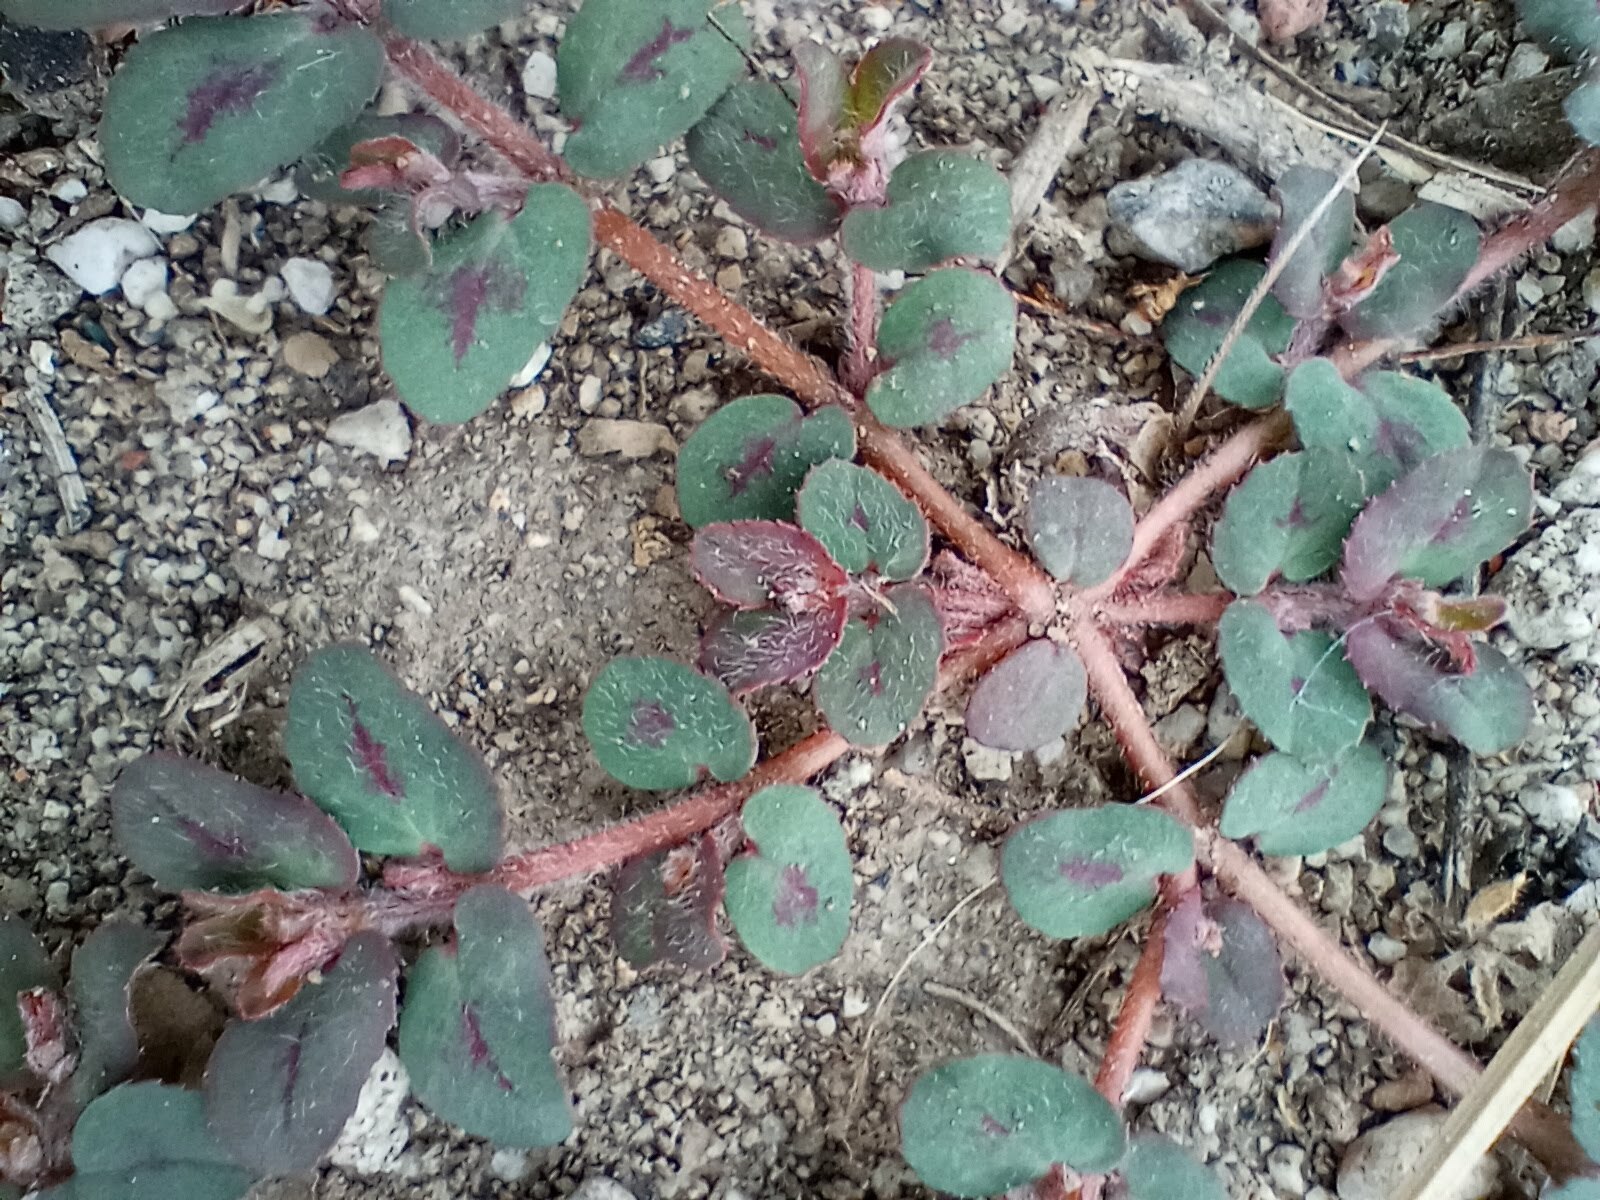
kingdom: Plantae
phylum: Tracheophyta
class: Magnoliopsida
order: Malpighiales
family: Euphorbiaceae
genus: Euphorbia
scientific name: Euphorbia maculata
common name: Spotted spurge
